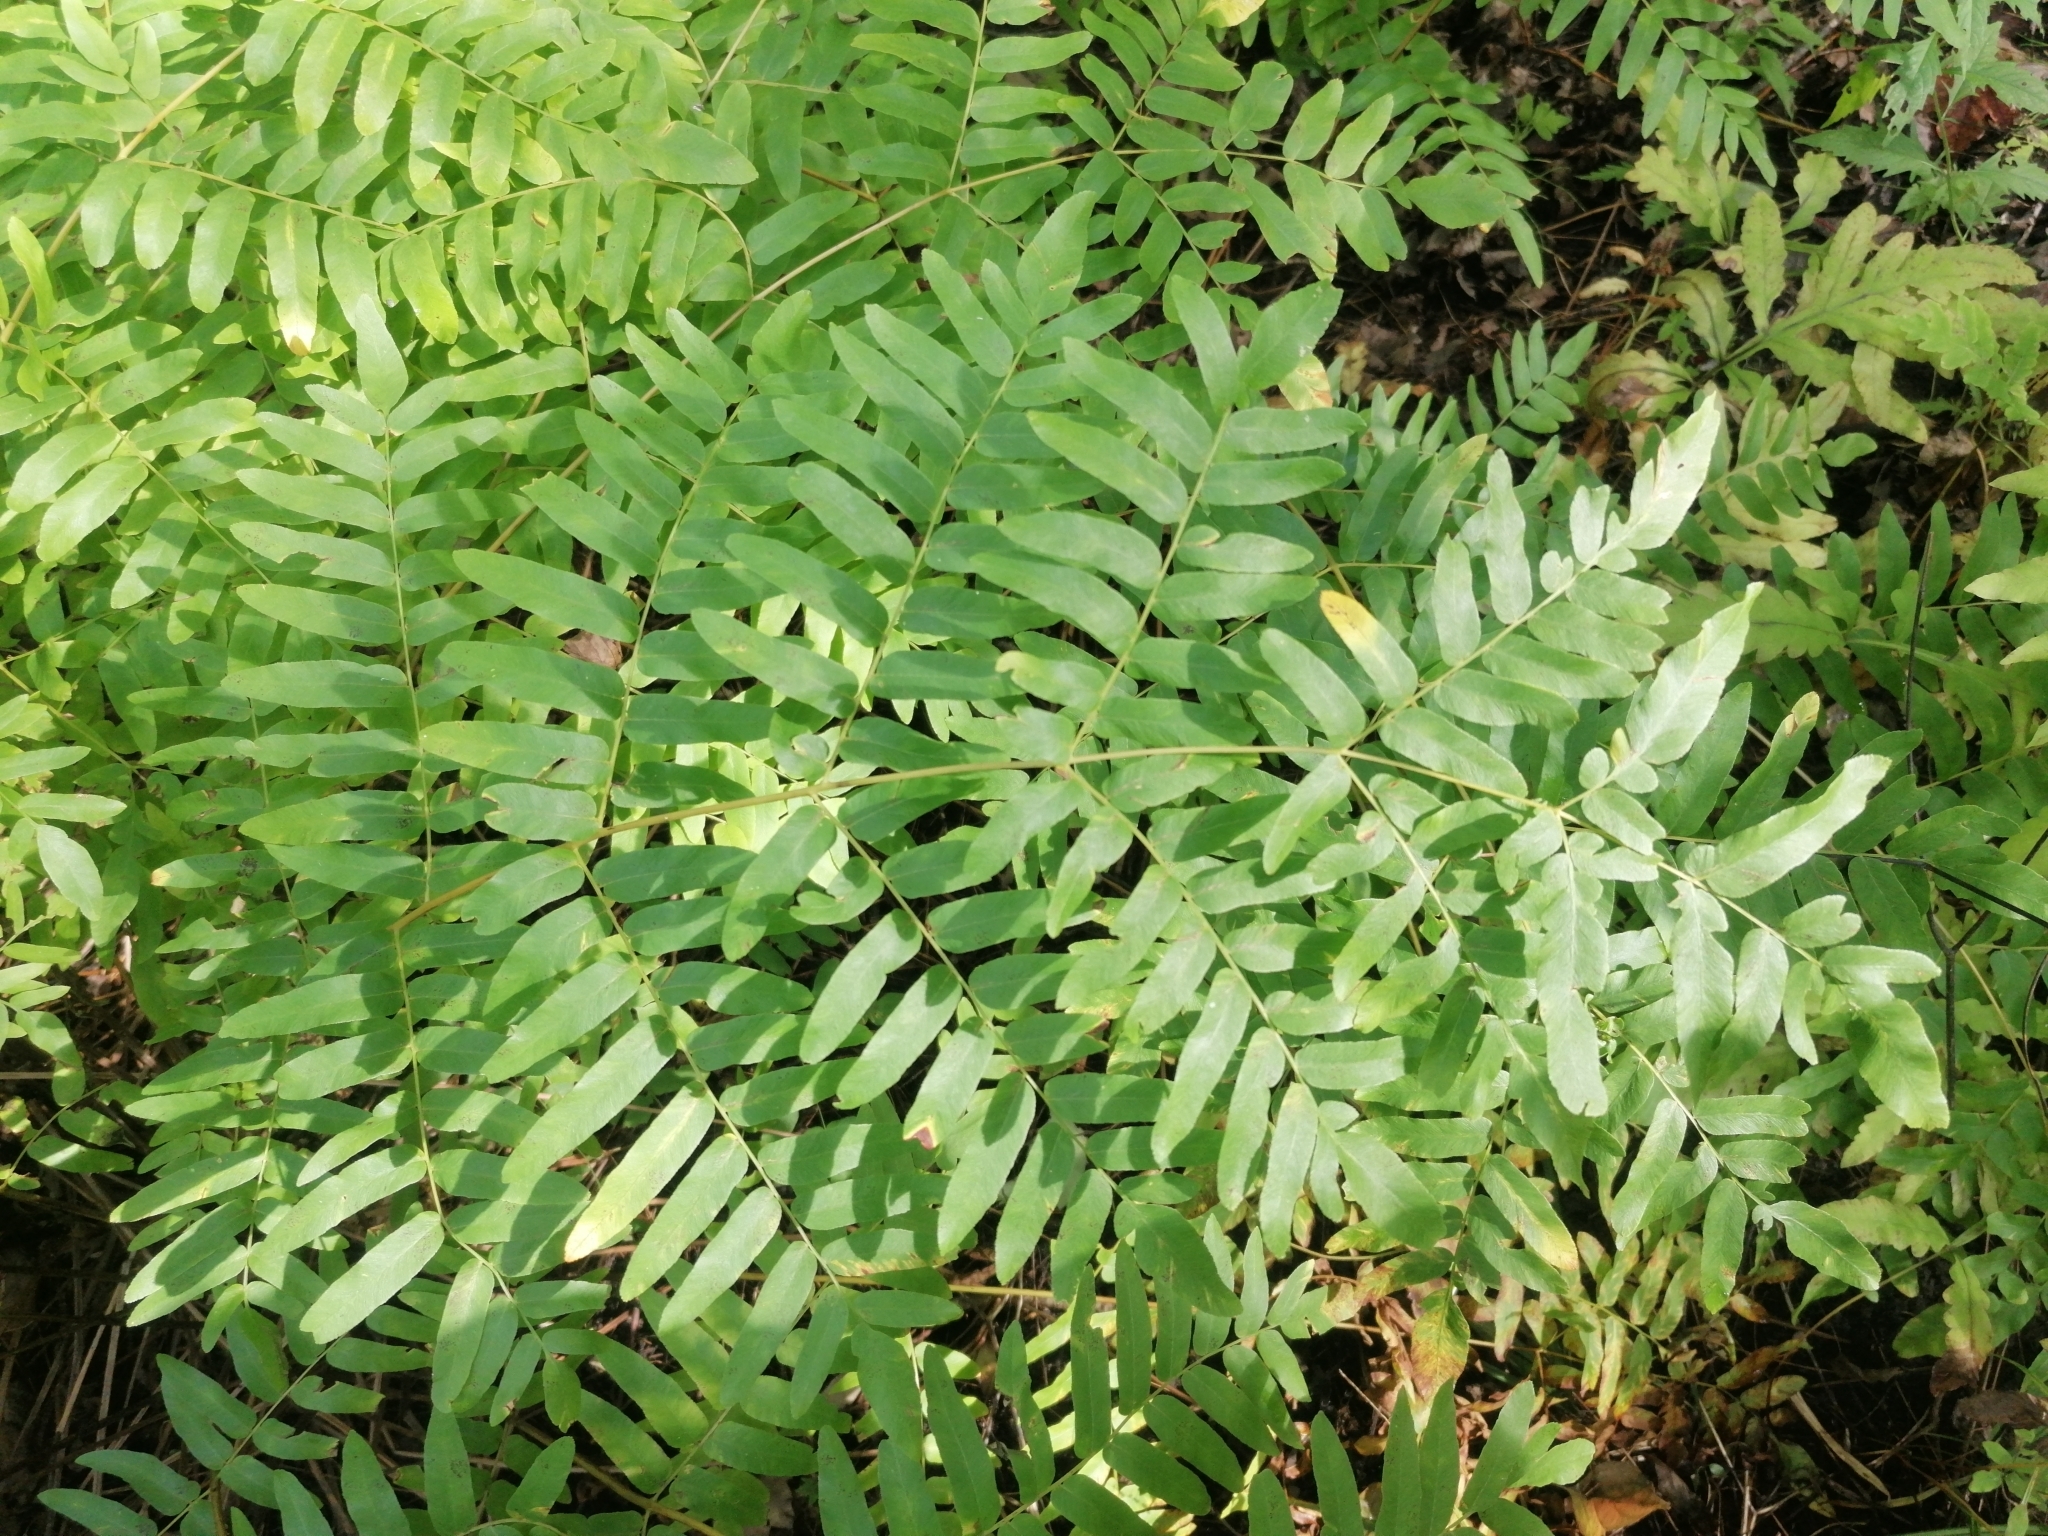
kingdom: Plantae
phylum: Tracheophyta
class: Polypodiopsida
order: Osmundales
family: Osmundaceae
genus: Osmunda
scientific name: Osmunda spectabilis
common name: American royal fern
